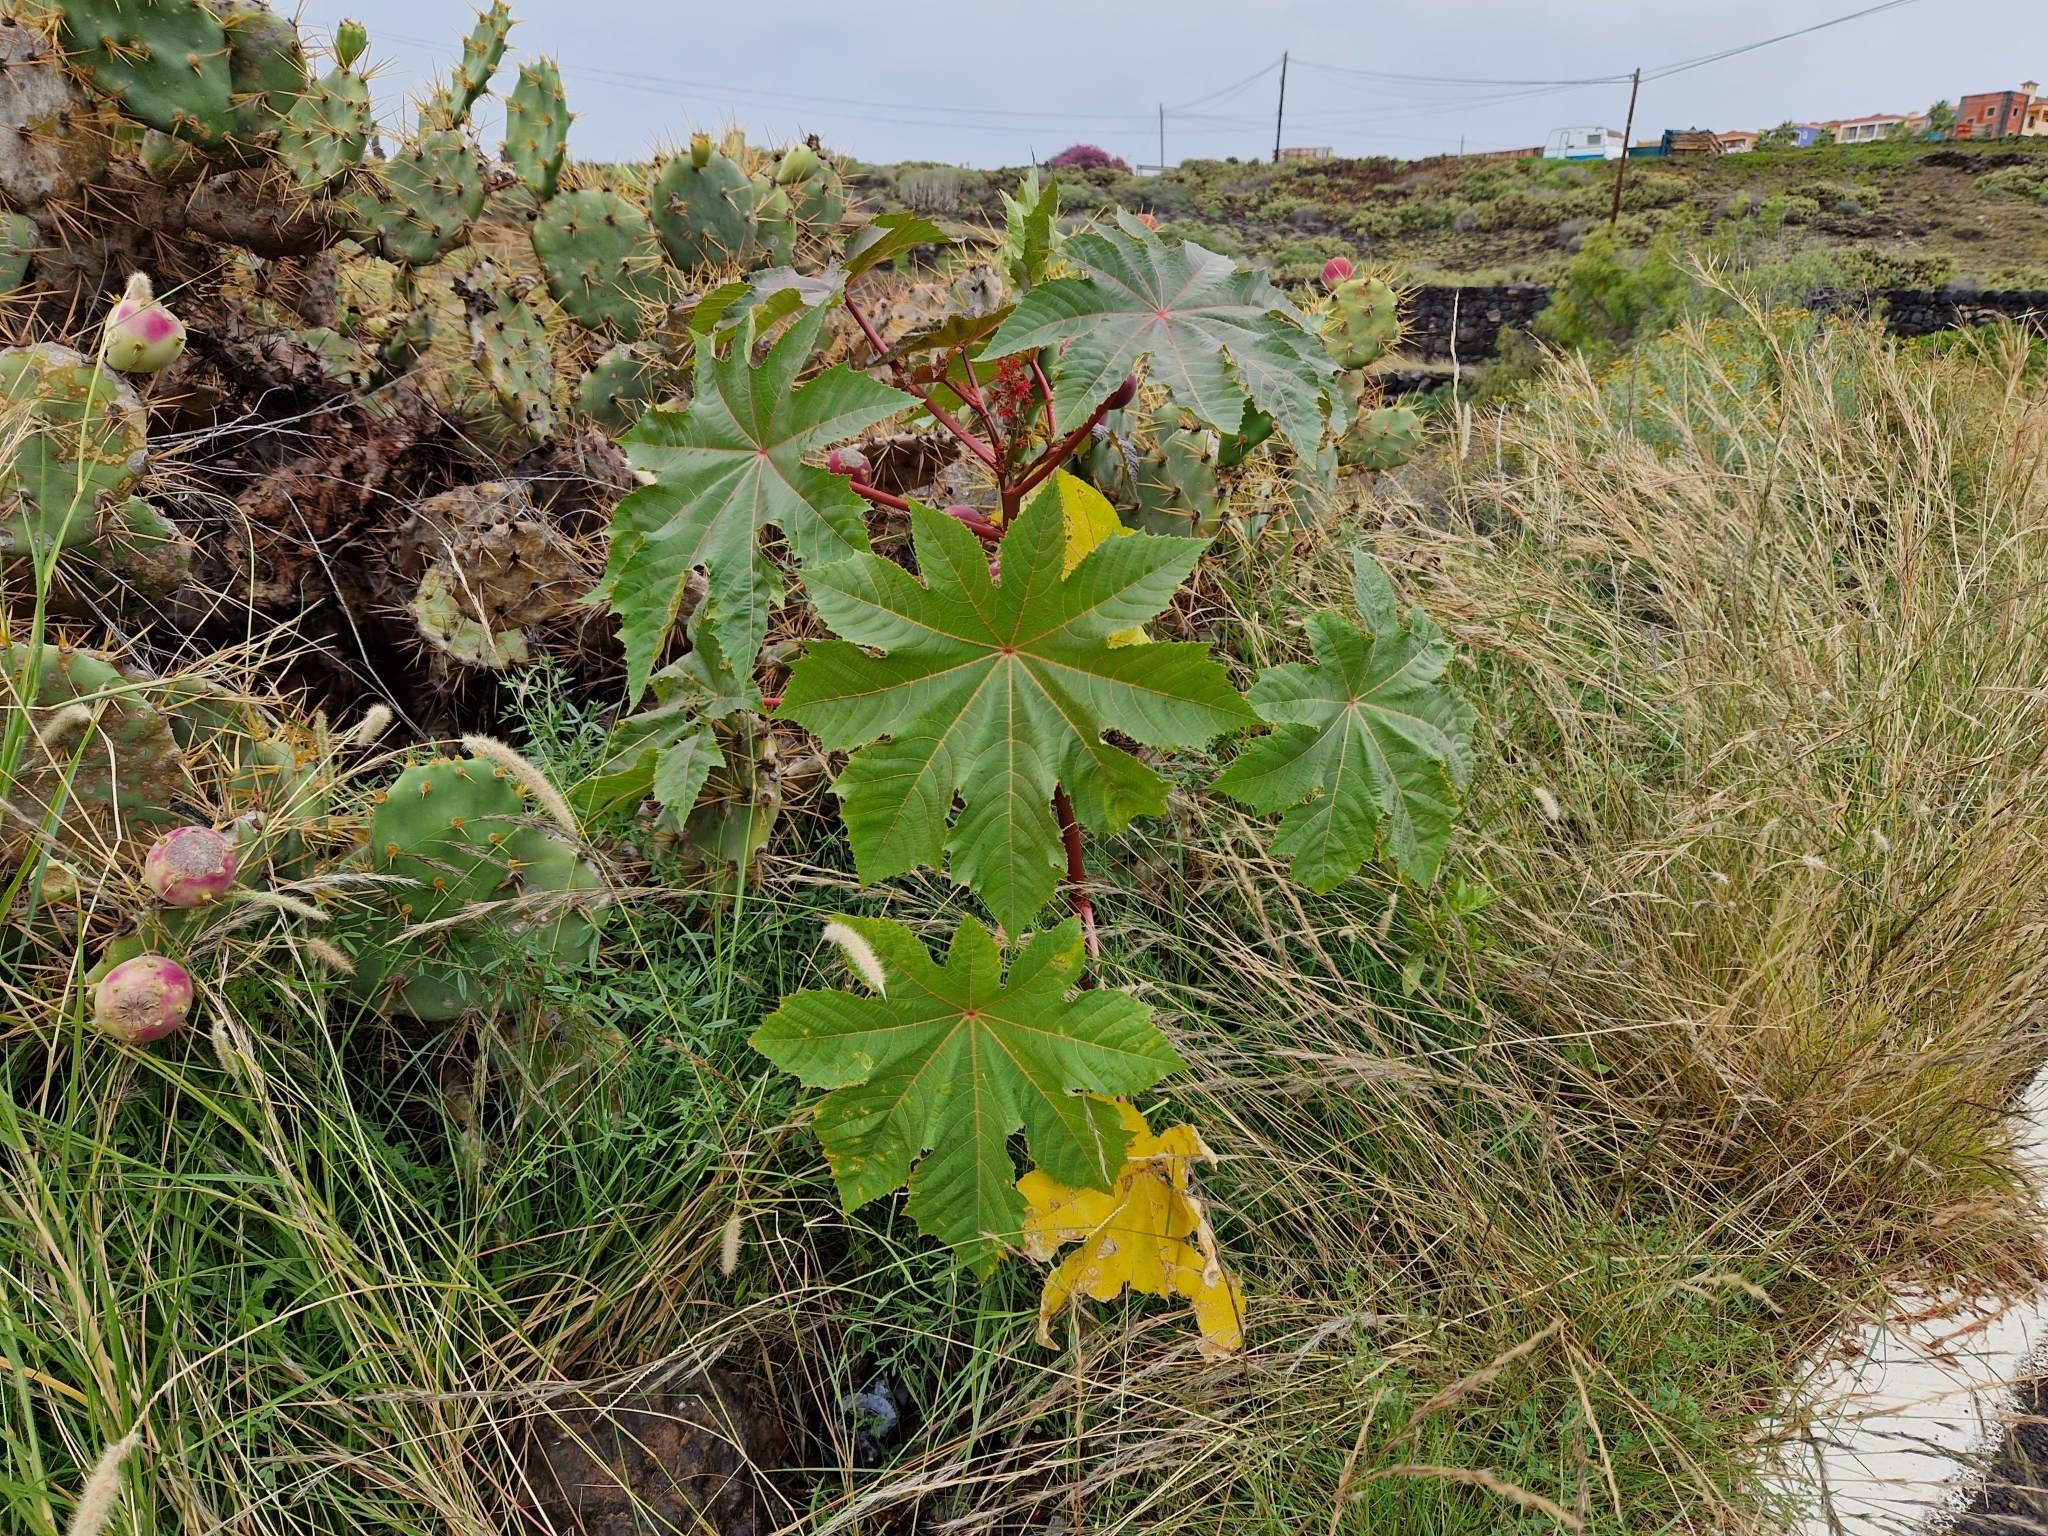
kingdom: Plantae
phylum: Tracheophyta
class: Magnoliopsida
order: Malpighiales
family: Euphorbiaceae
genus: Ricinus
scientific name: Ricinus communis
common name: Castor-oil-plant
